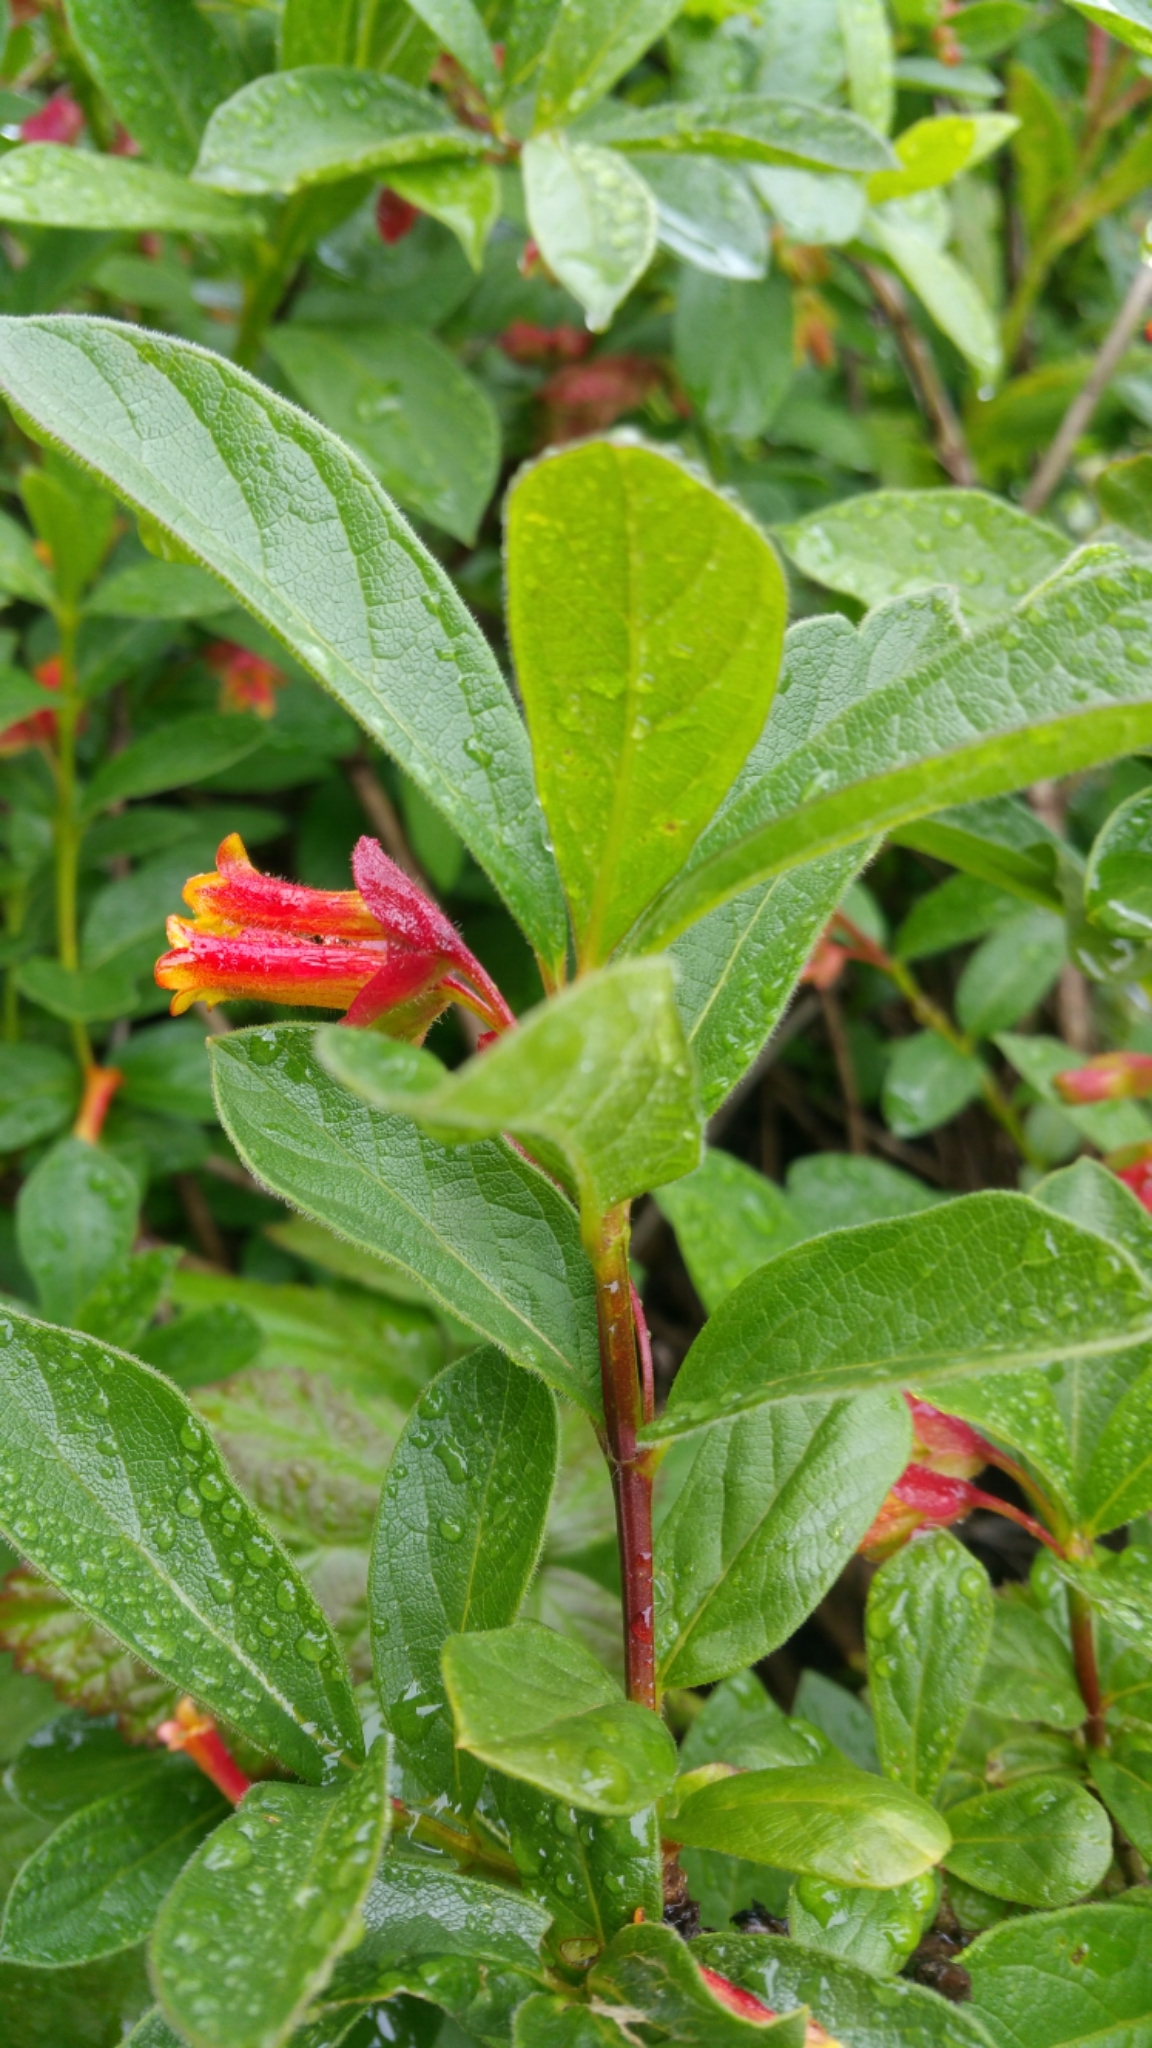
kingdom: Plantae
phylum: Tracheophyta
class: Magnoliopsida
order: Dipsacales
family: Caprifoliaceae
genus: Lonicera
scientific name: Lonicera involucrata
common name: Californian honeysuckle
